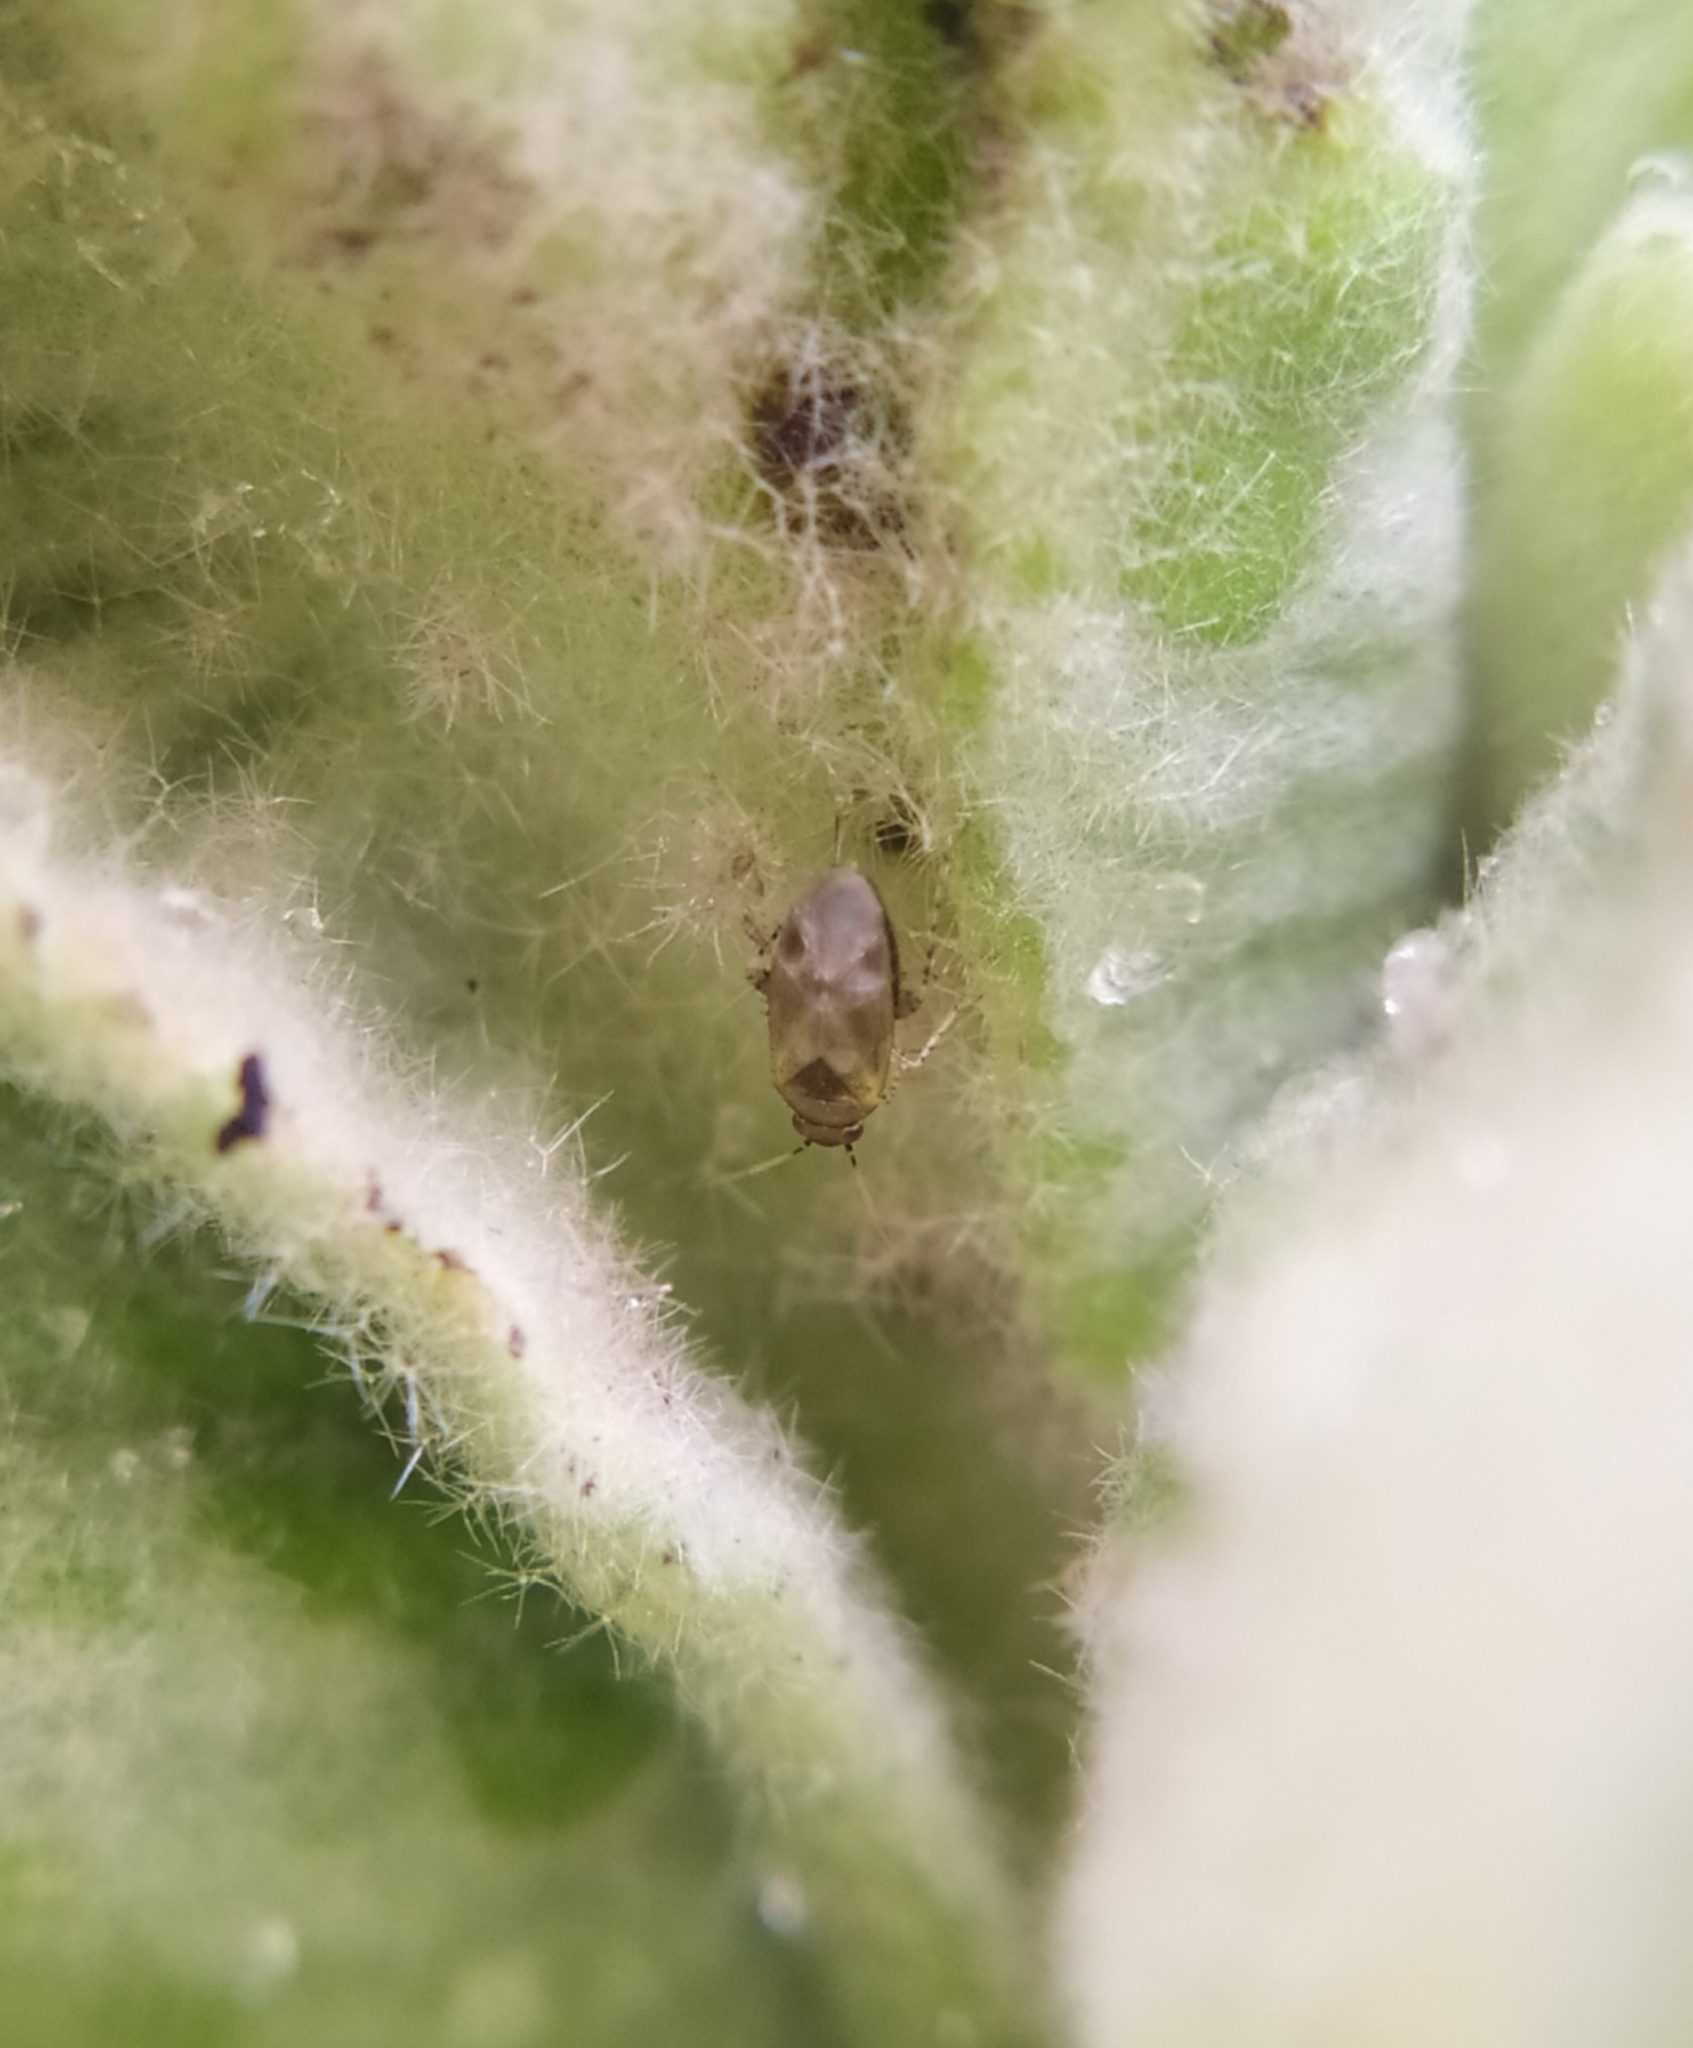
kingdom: Animalia
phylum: Arthropoda
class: Insecta
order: Hemiptera
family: Miridae
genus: Campylomma
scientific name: Campylomma verbasci
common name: Mullein bug
